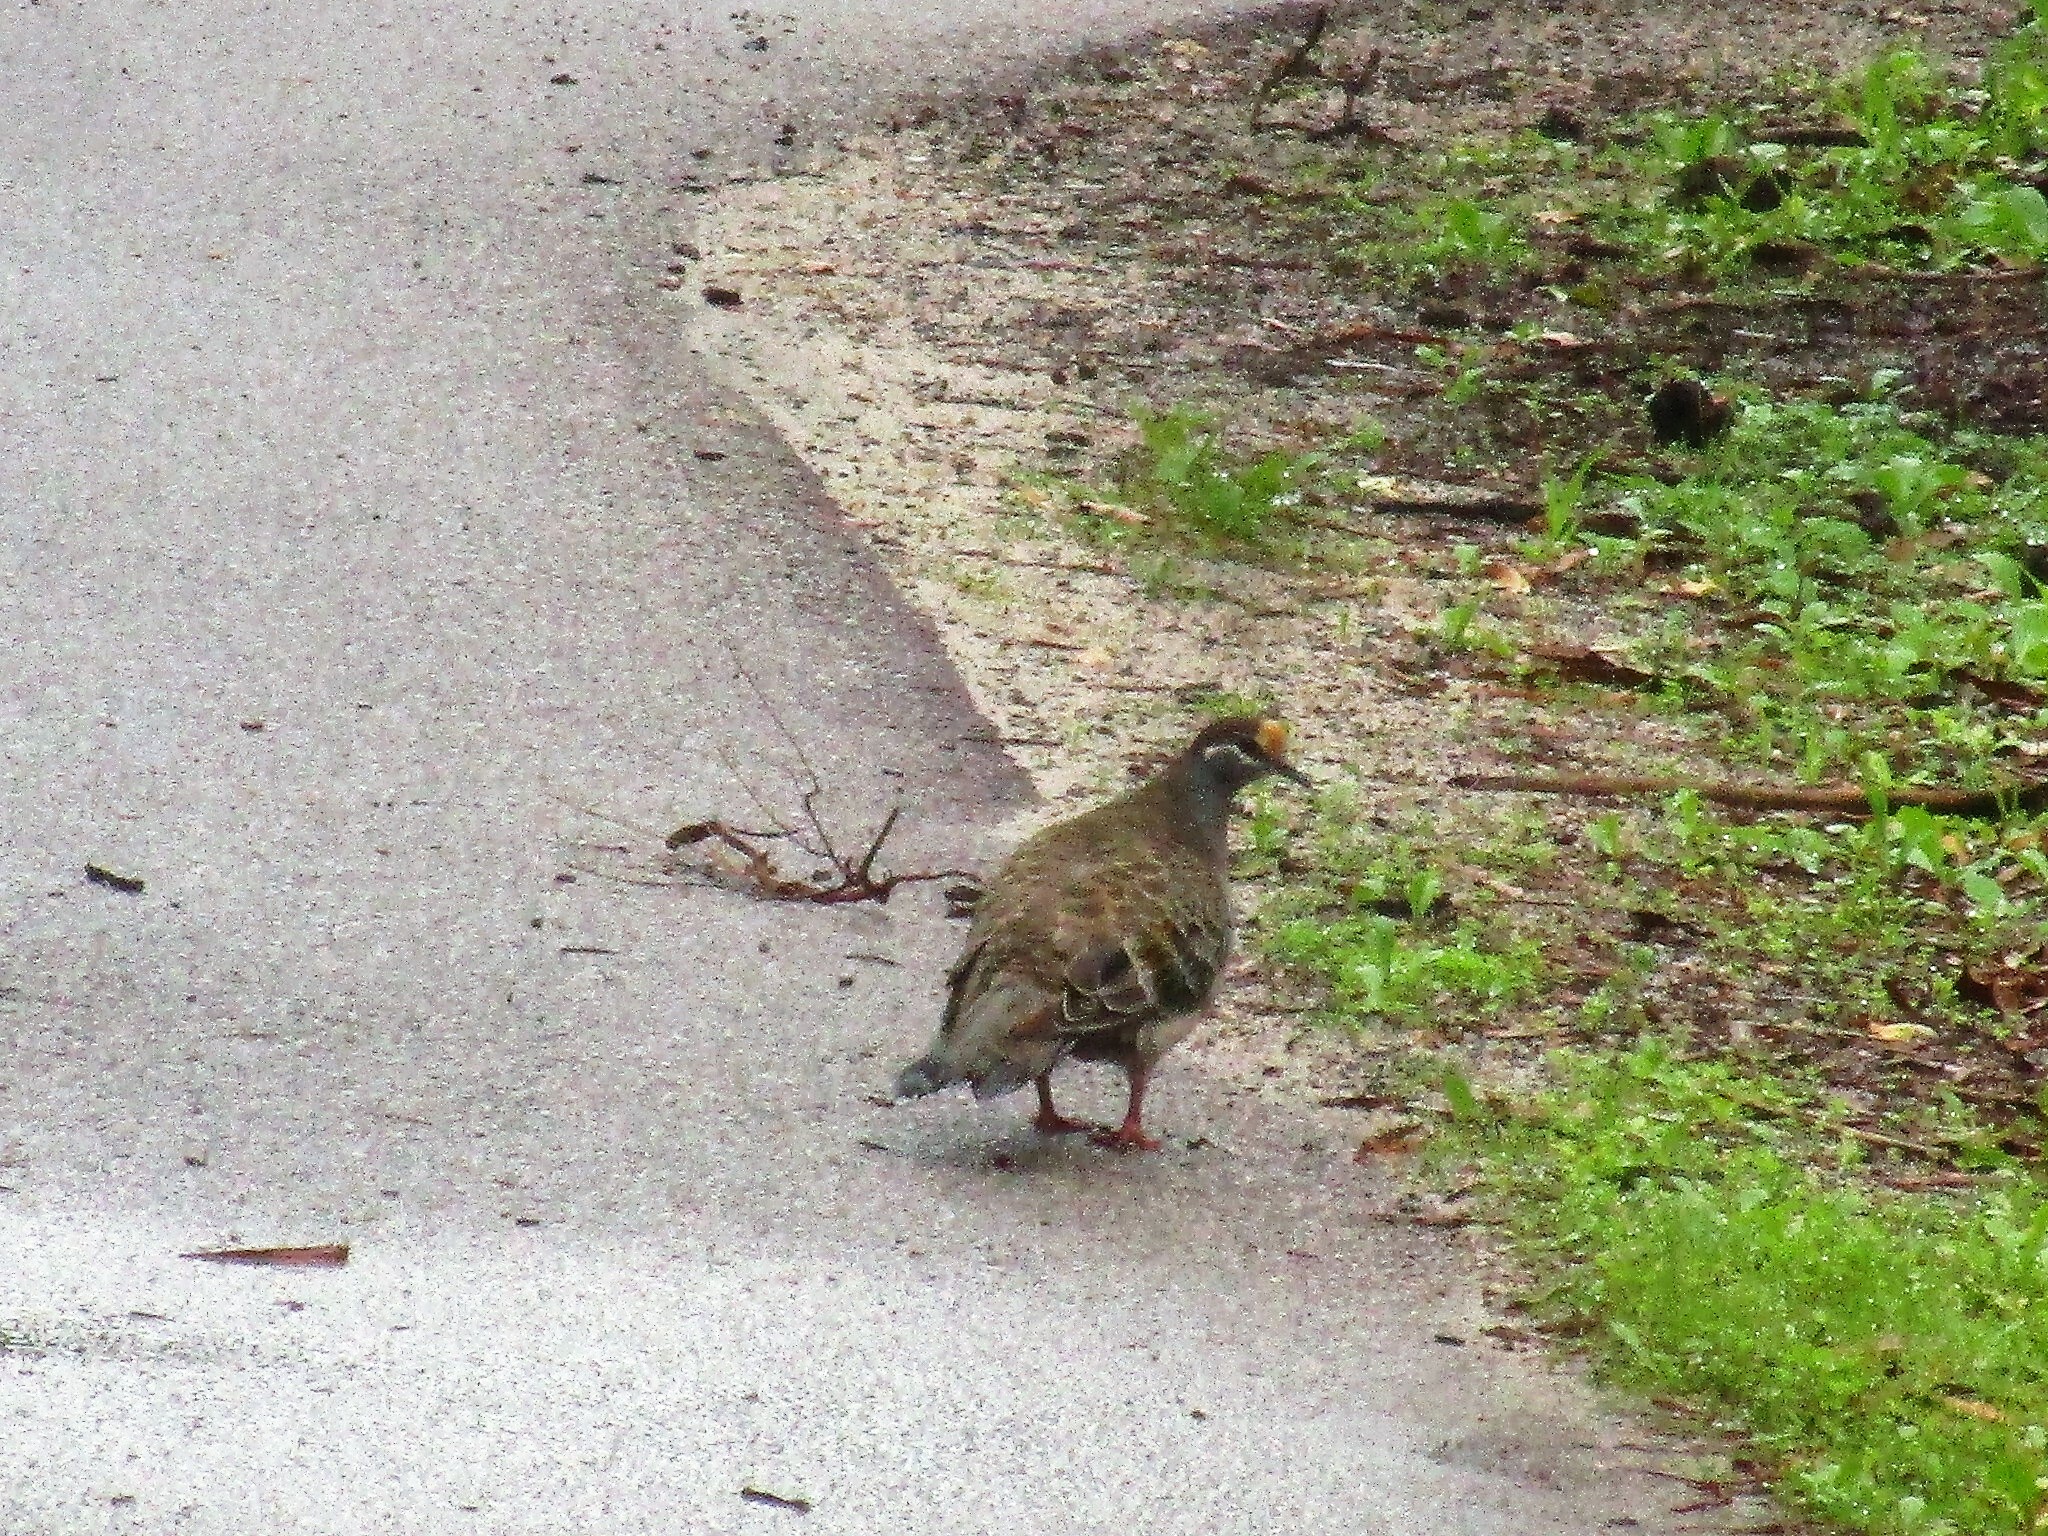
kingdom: Animalia
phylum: Chordata
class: Aves
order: Columbiformes
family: Columbidae
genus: Phaps
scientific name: Phaps chalcoptera
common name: Common bronzewing
